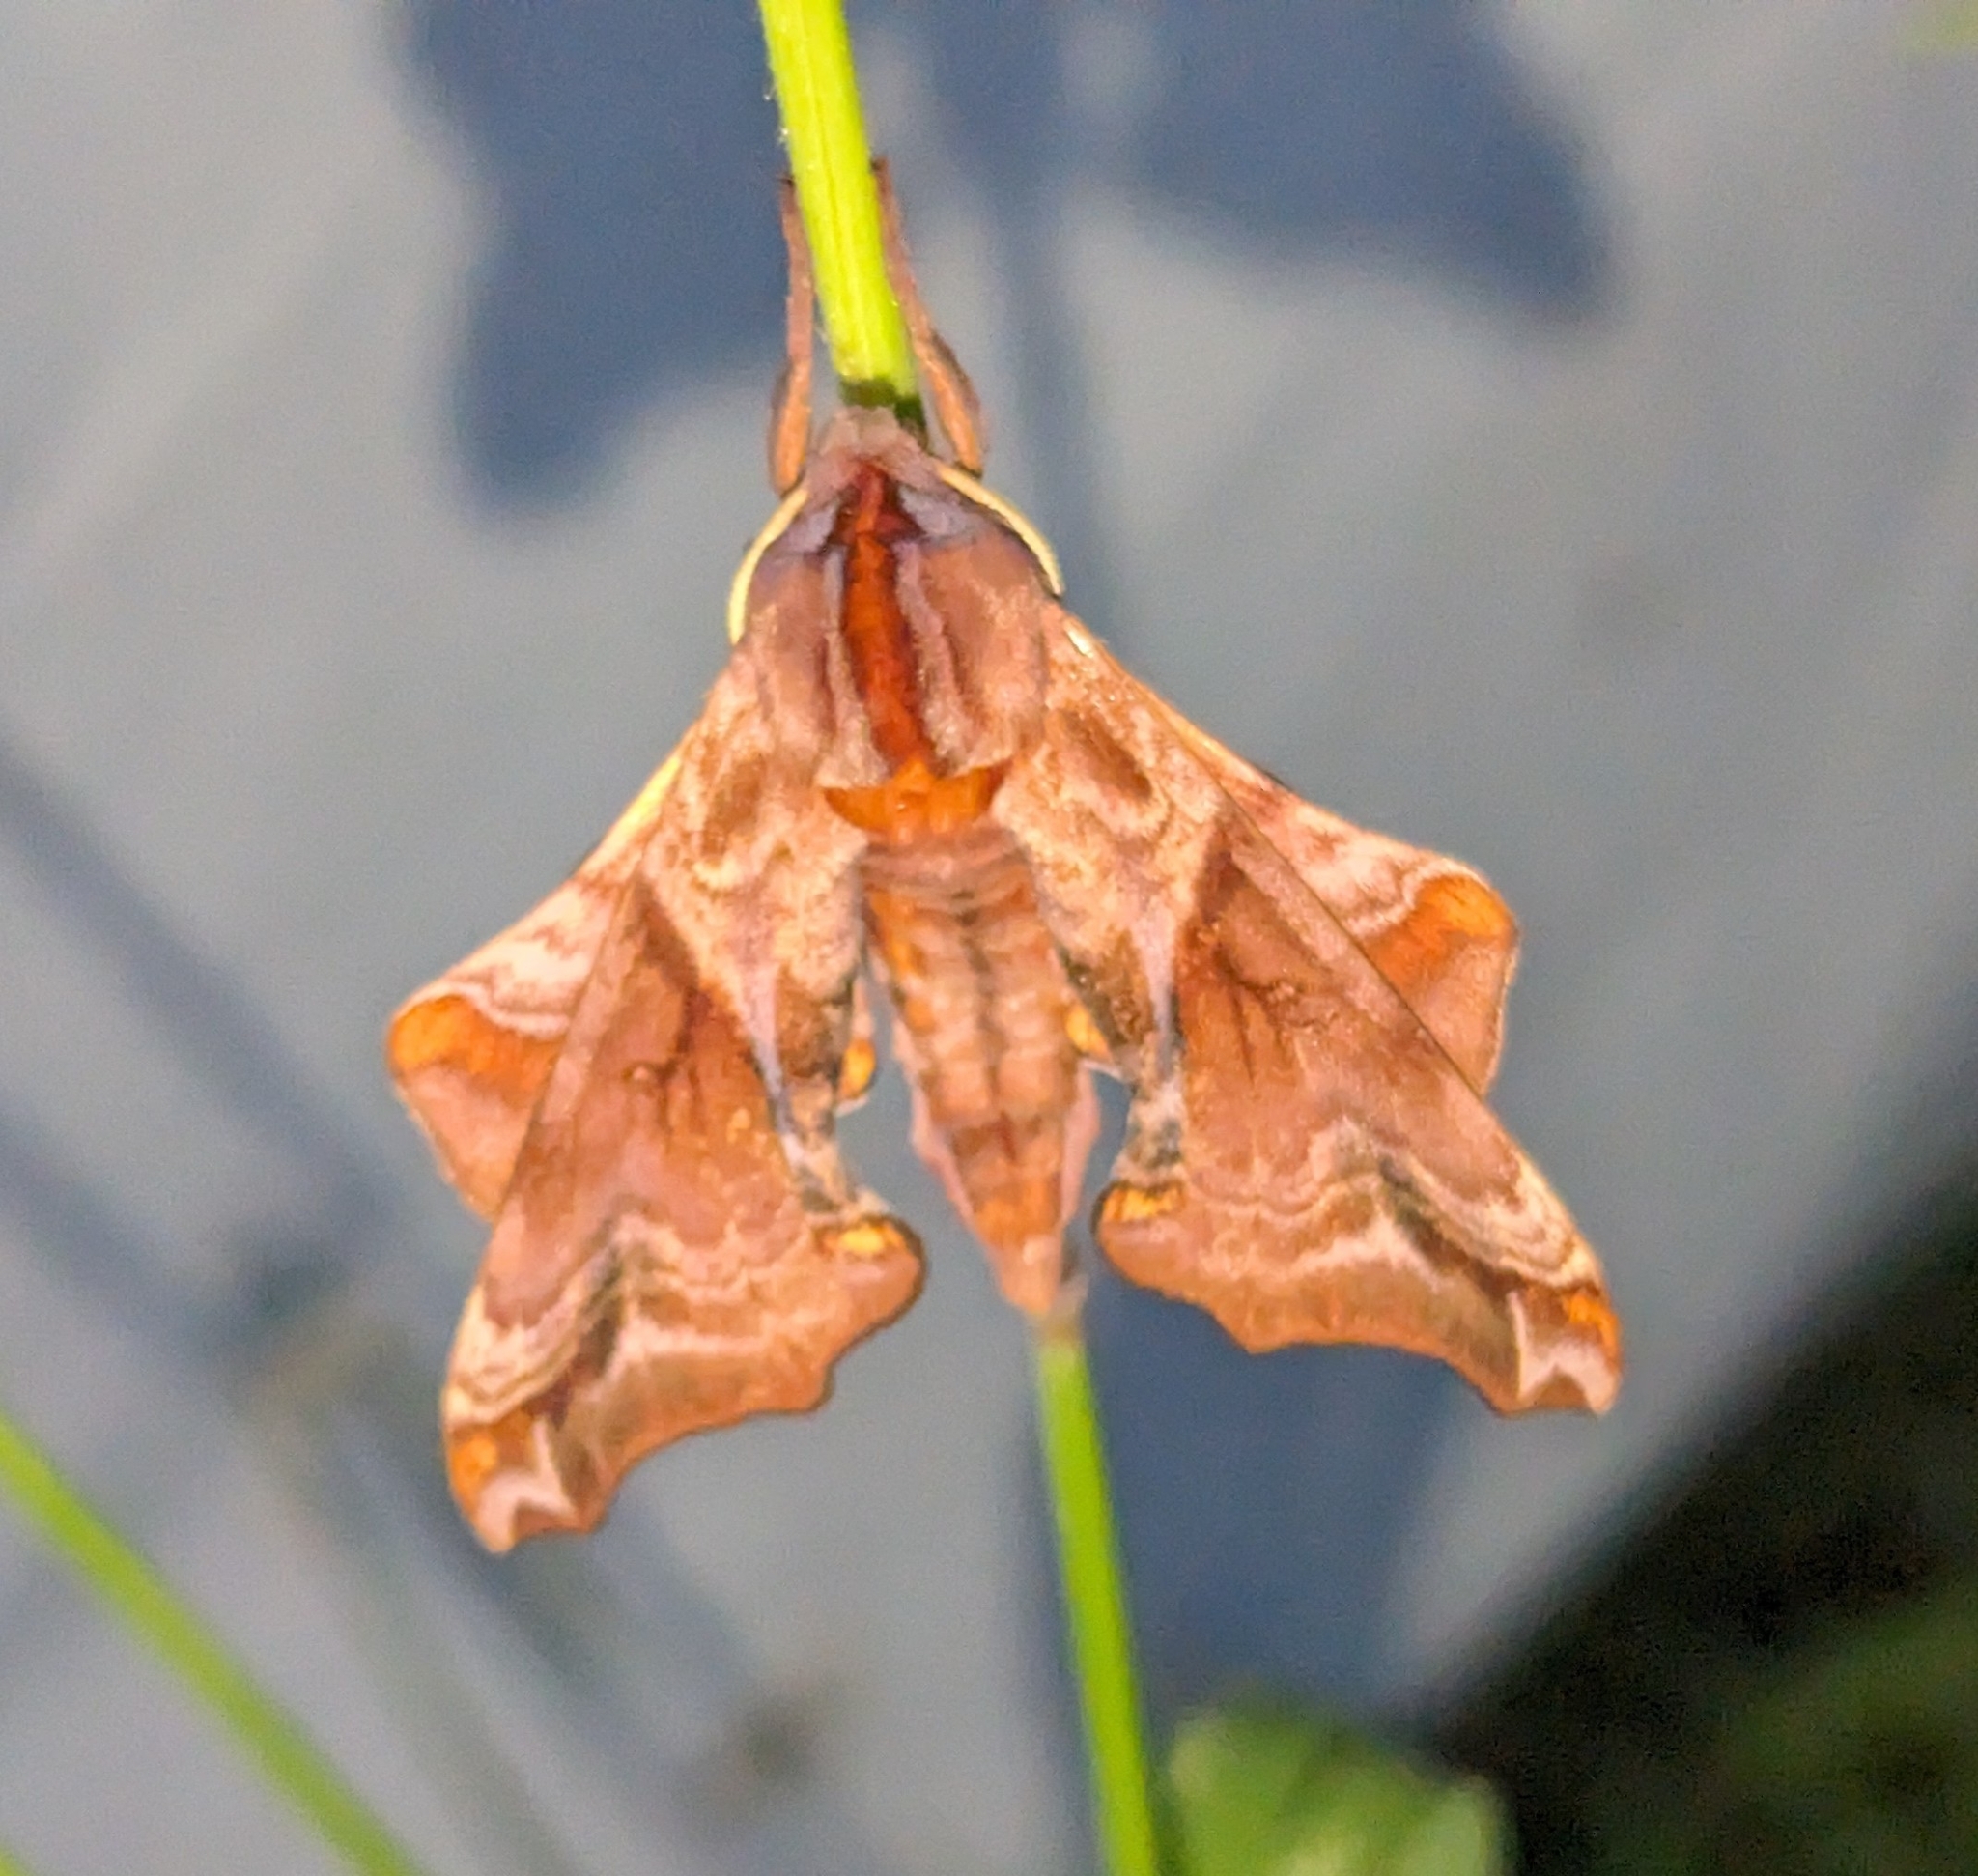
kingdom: Animalia
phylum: Arthropoda
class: Insecta
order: Lepidoptera
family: Sphingidae
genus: Paonias
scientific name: Paonias myops
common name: Small-eyed sphinx
